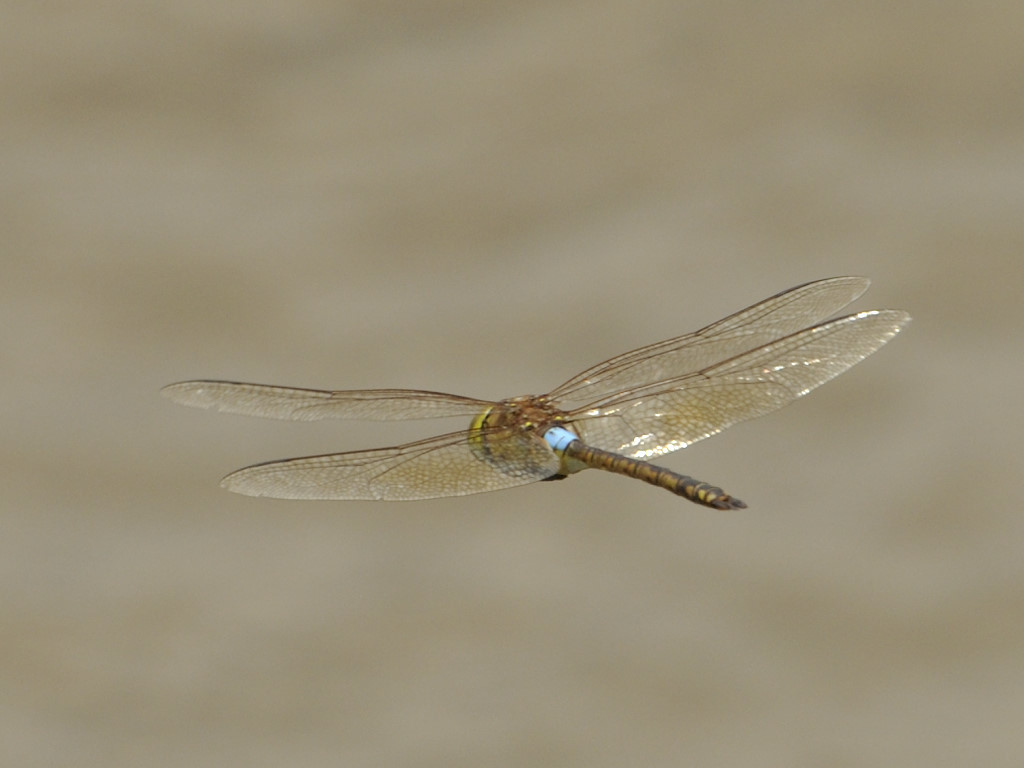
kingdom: Animalia
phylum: Arthropoda
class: Insecta
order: Odonata
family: Aeshnidae
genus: Anax
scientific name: Anax ephippiger
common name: Vagrant emperor
